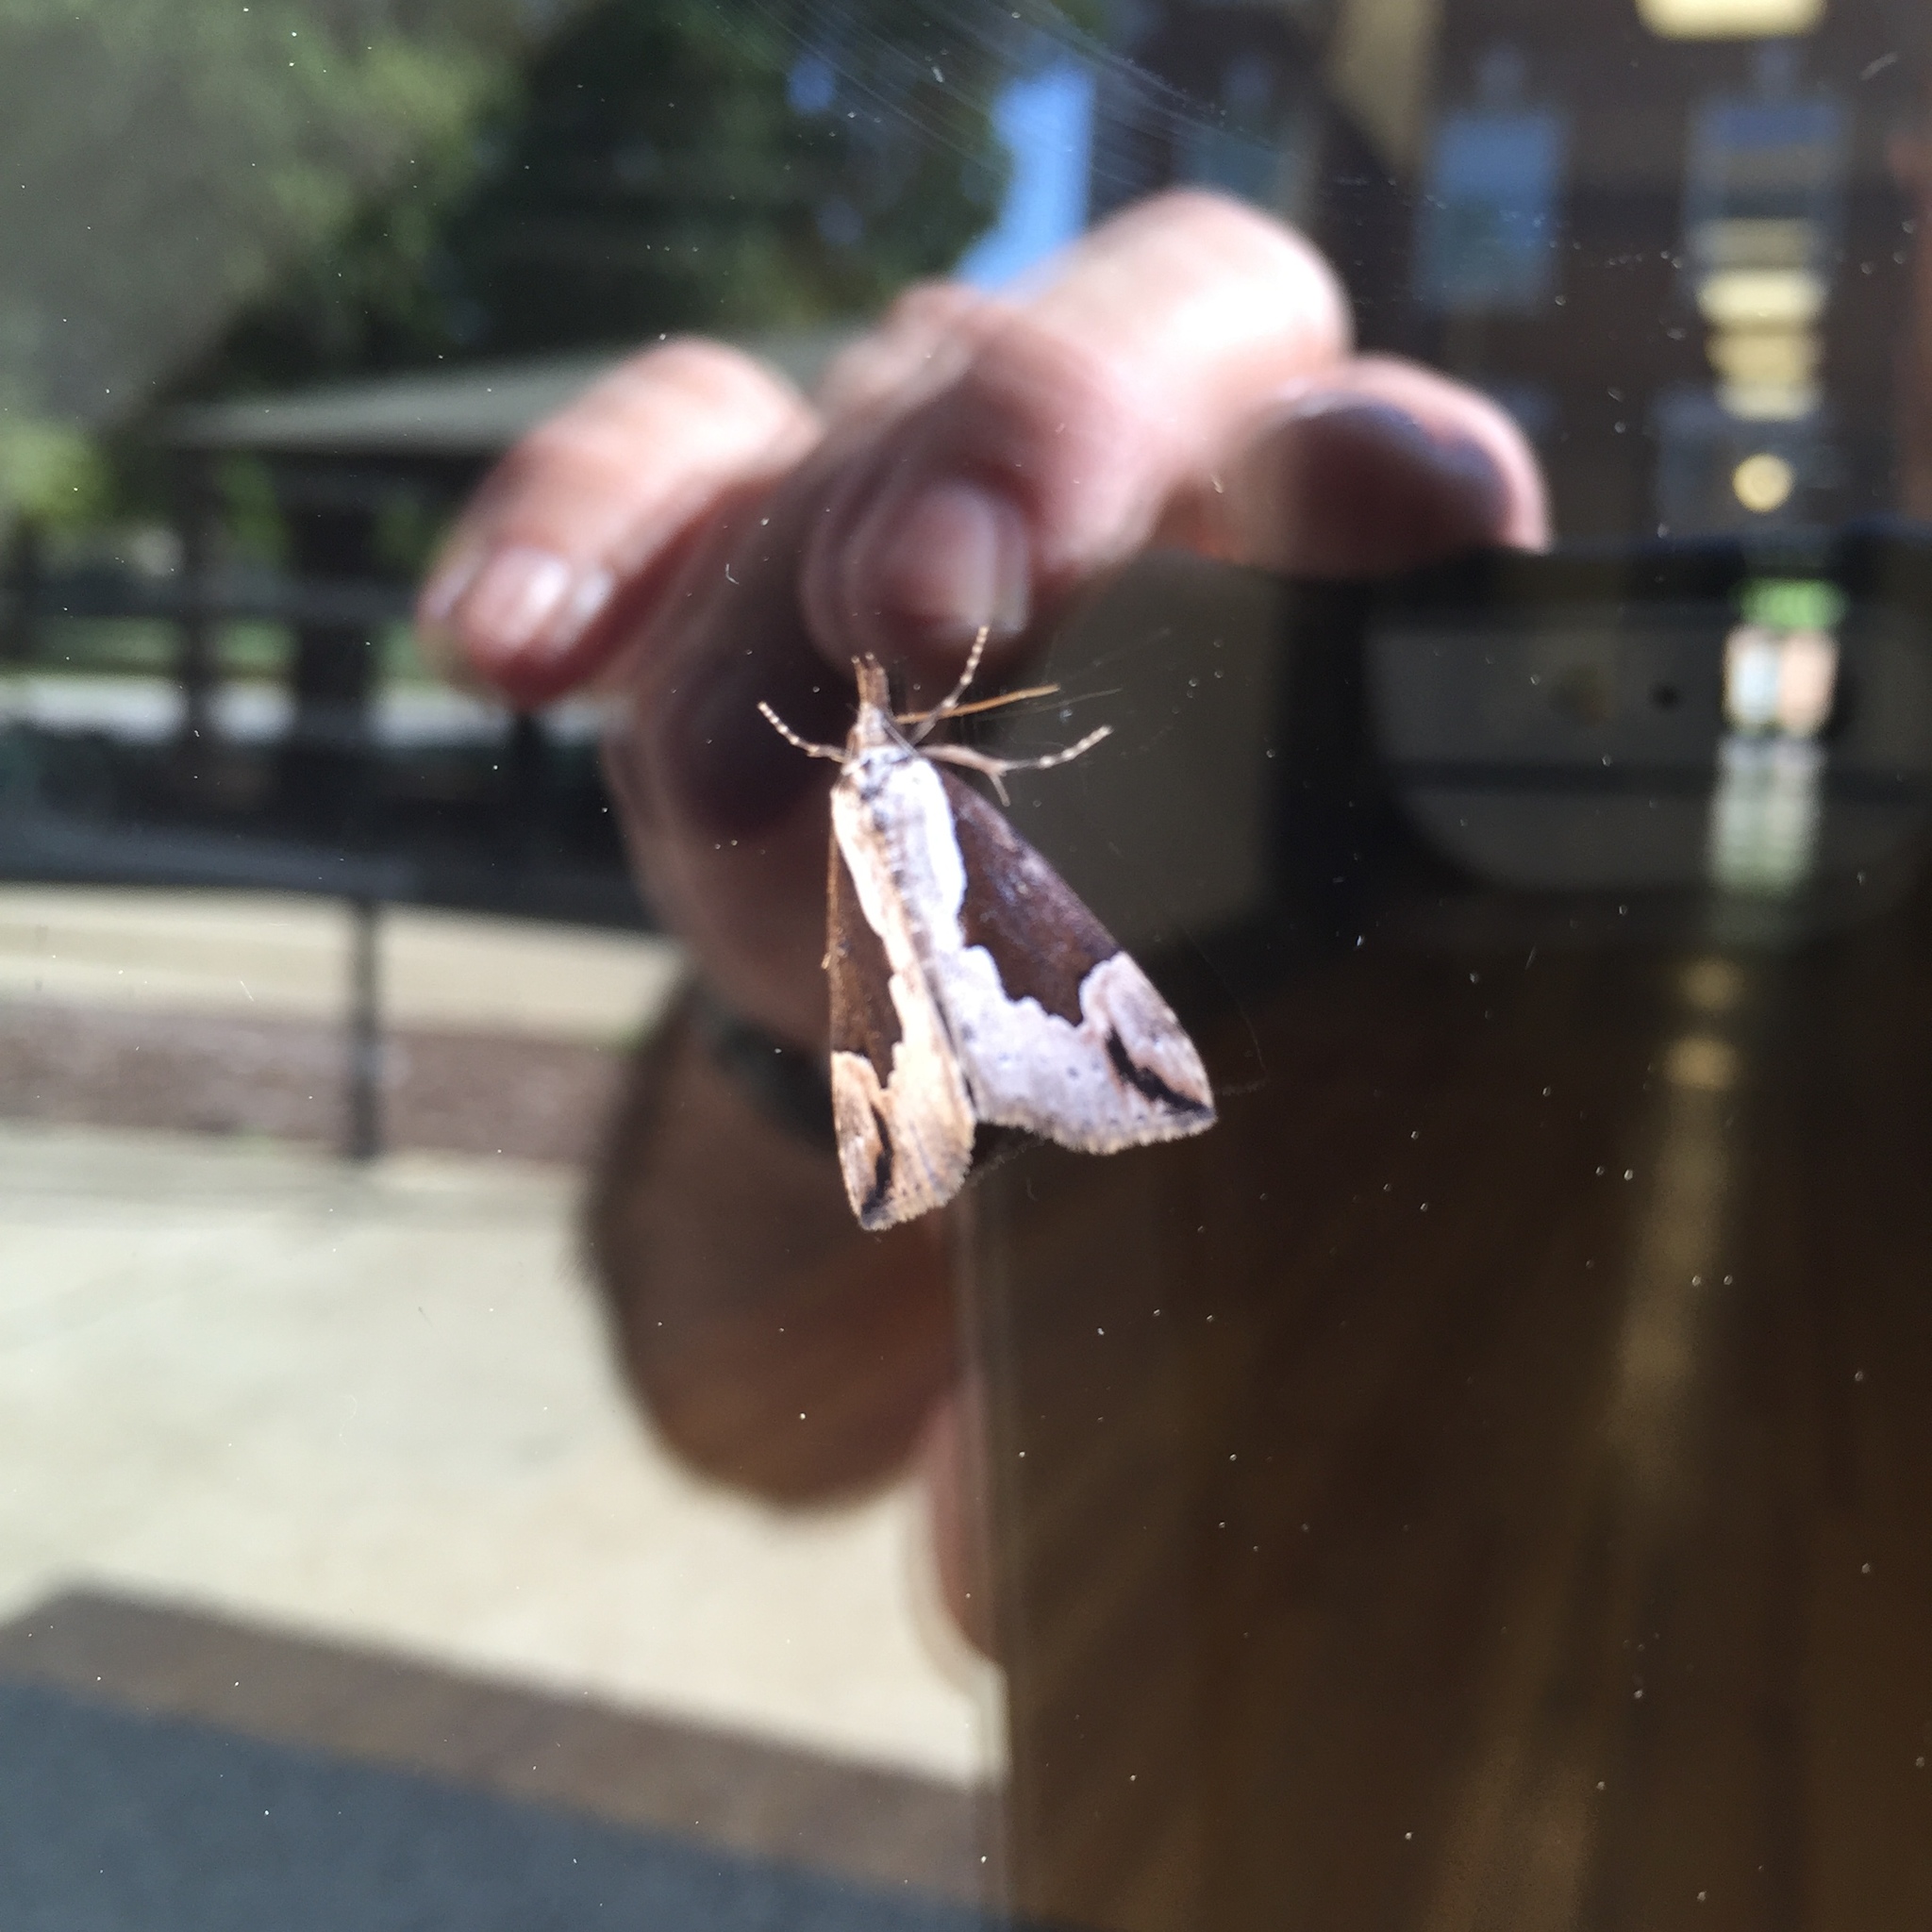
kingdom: Animalia
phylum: Arthropoda
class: Insecta
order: Lepidoptera
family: Erebidae
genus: Hypena
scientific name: Hypena baltimoralis
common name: Baltimore snout
